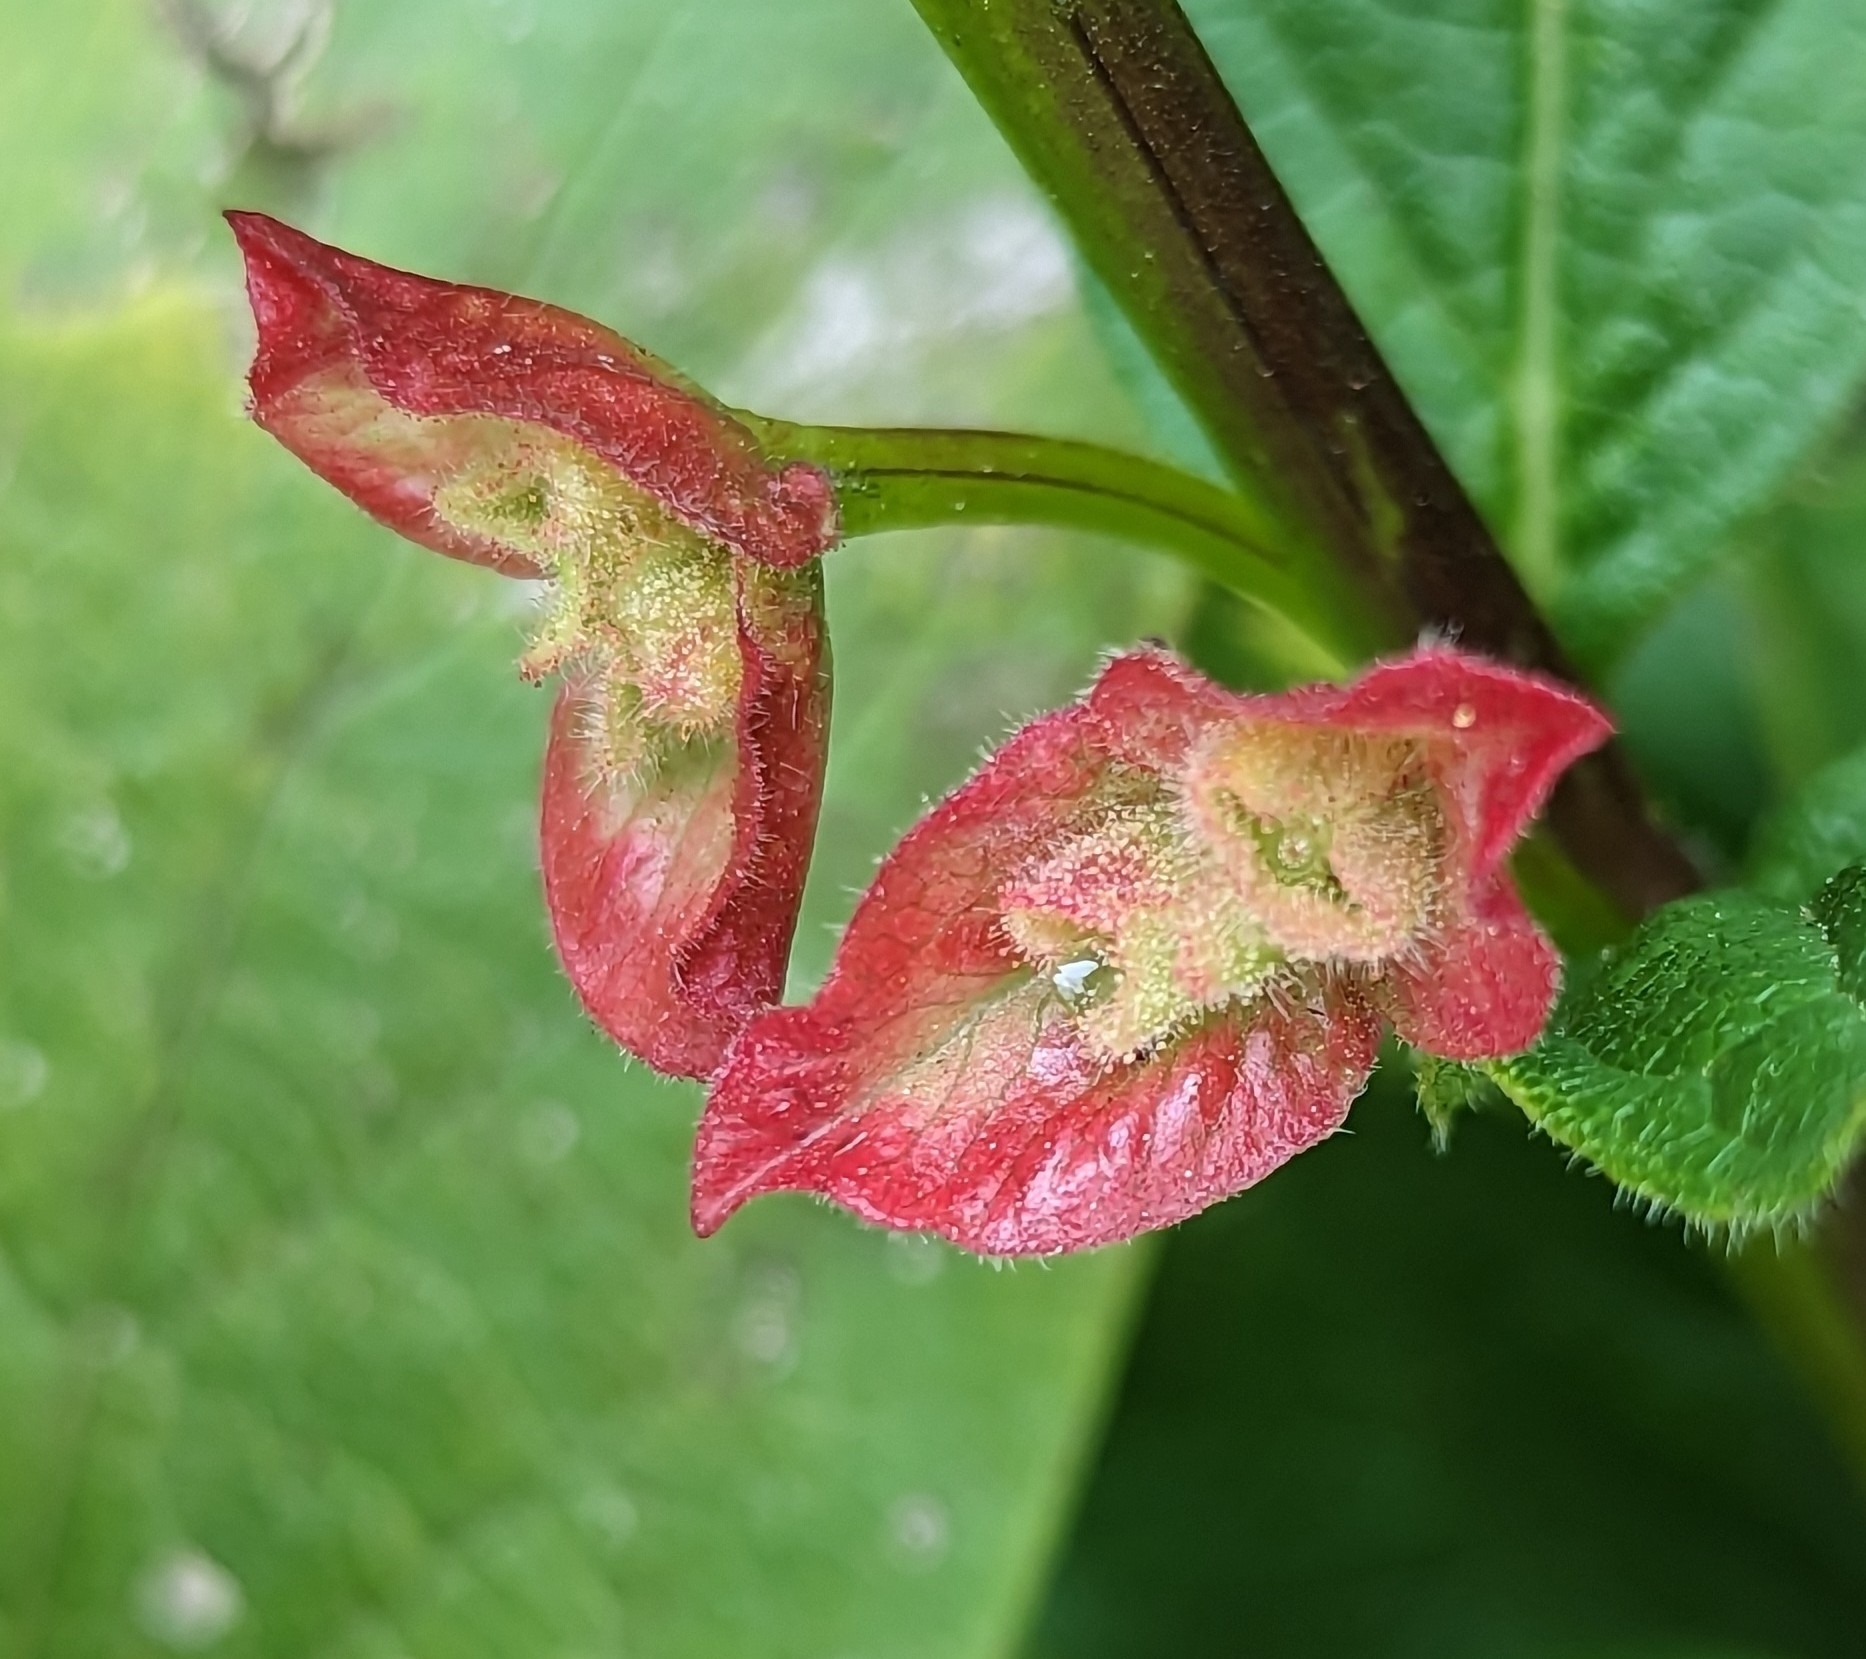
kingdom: Plantae
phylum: Tracheophyta
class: Magnoliopsida
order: Dipsacales
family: Caprifoliaceae
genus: Lonicera
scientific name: Lonicera involucrata
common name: Californian honeysuckle
